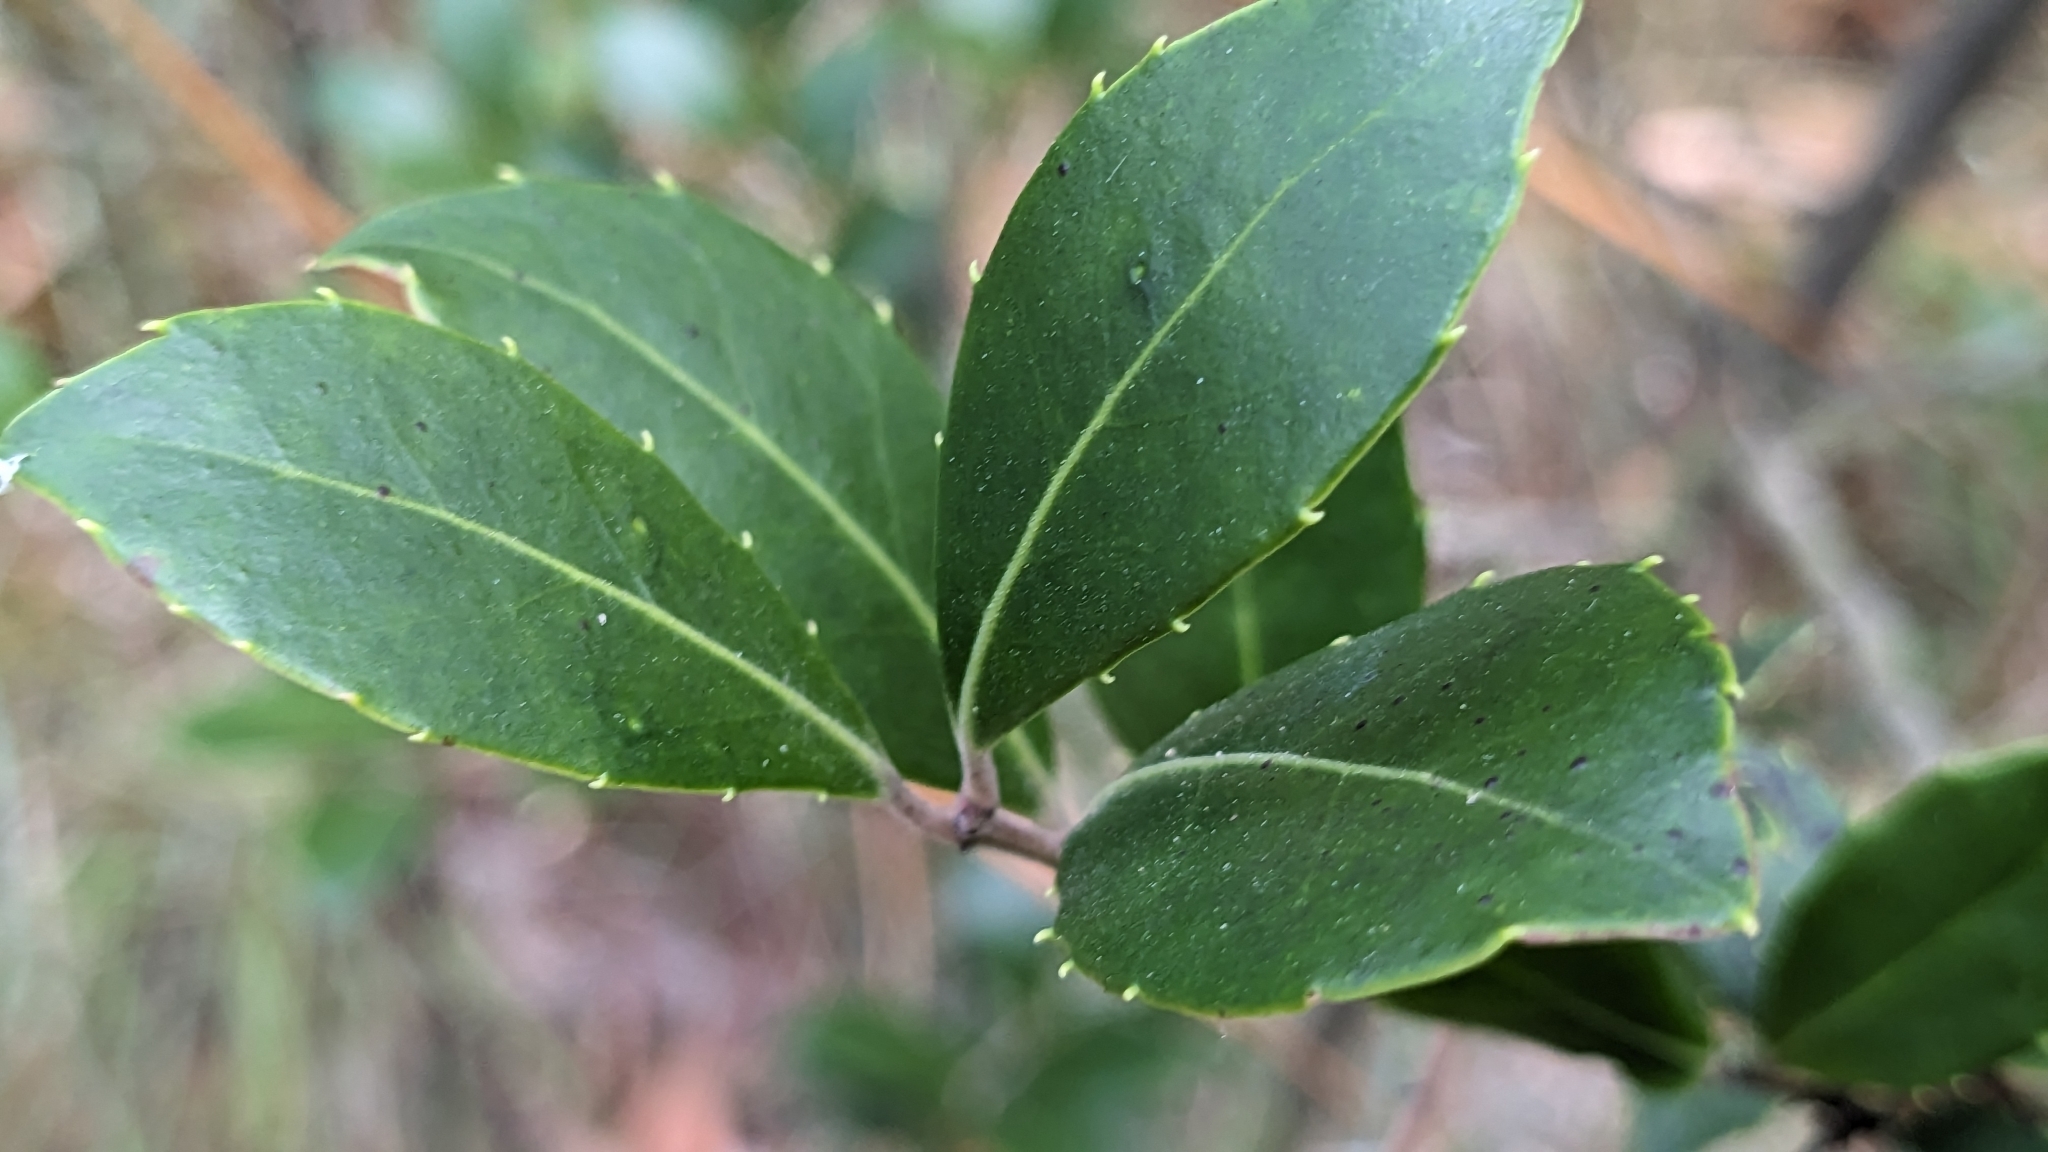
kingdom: Plantae
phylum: Tracheophyta
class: Magnoliopsida
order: Aquifoliales
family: Aquifoliaceae
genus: Ilex
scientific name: Ilex coriacea
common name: Sweet gallberry
